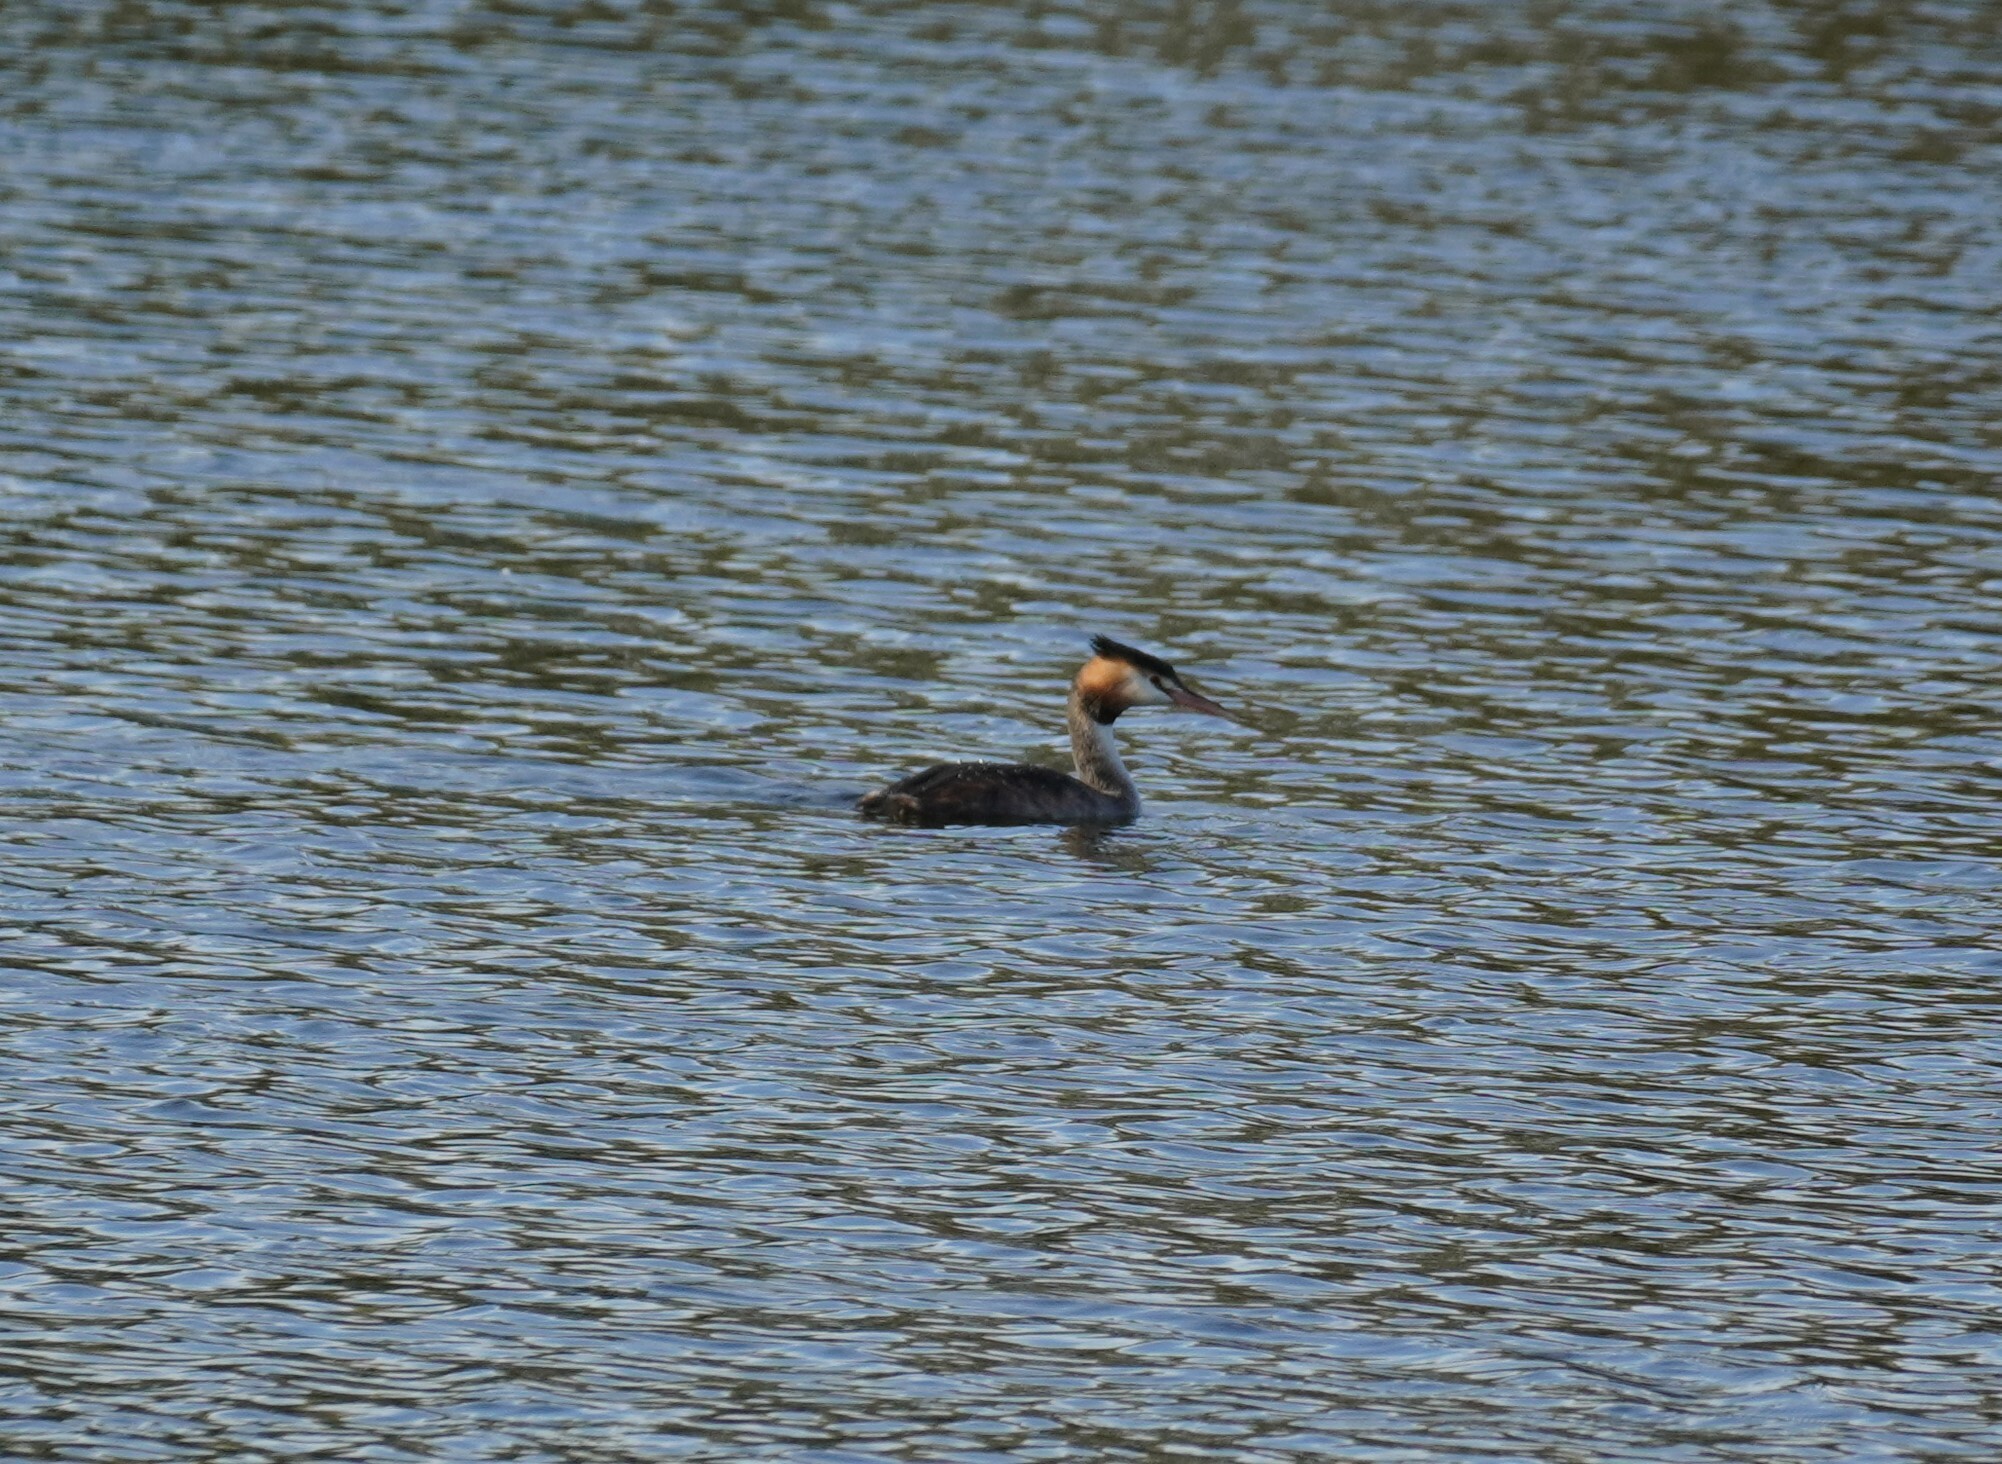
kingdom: Animalia
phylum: Chordata
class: Aves
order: Podicipediformes
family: Podicipedidae
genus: Podiceps
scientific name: Podiceps cristatus
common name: Great crested grebe
